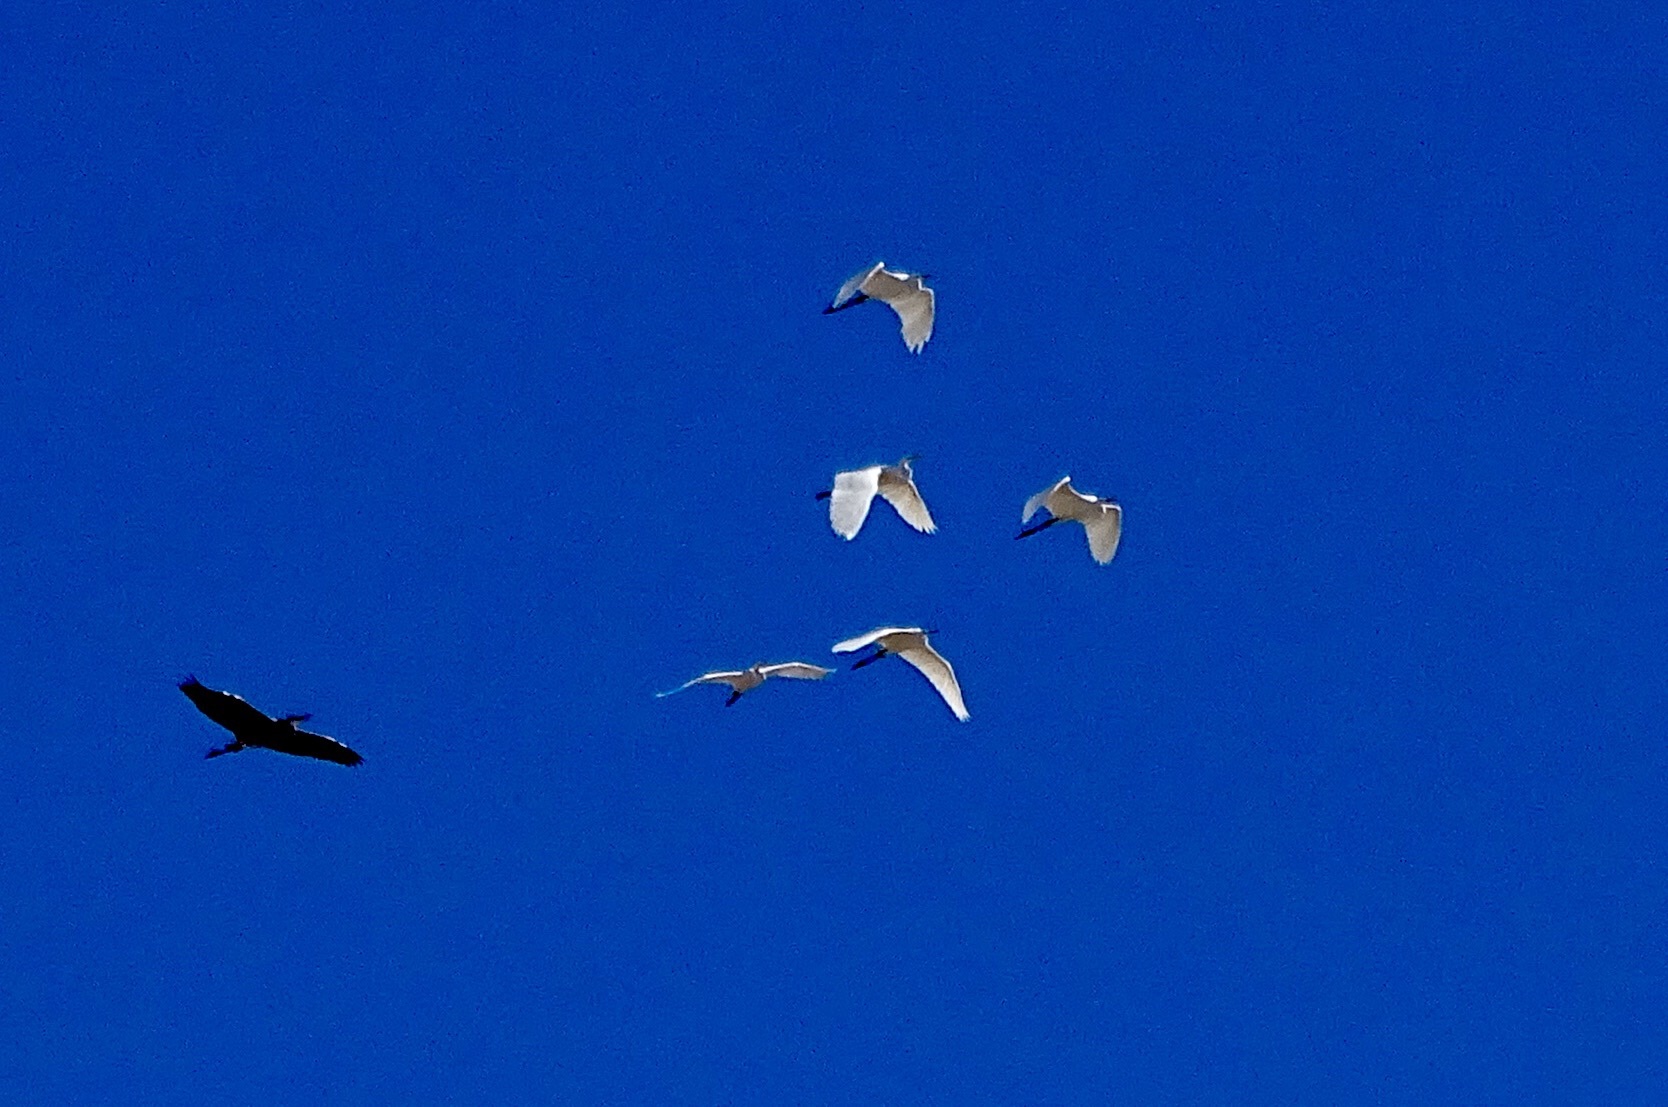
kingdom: Animalia
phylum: Chordata
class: Aves
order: Pelecaniformes
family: Ardeidae
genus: Ardea
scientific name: Ardea alba
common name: Great egret
